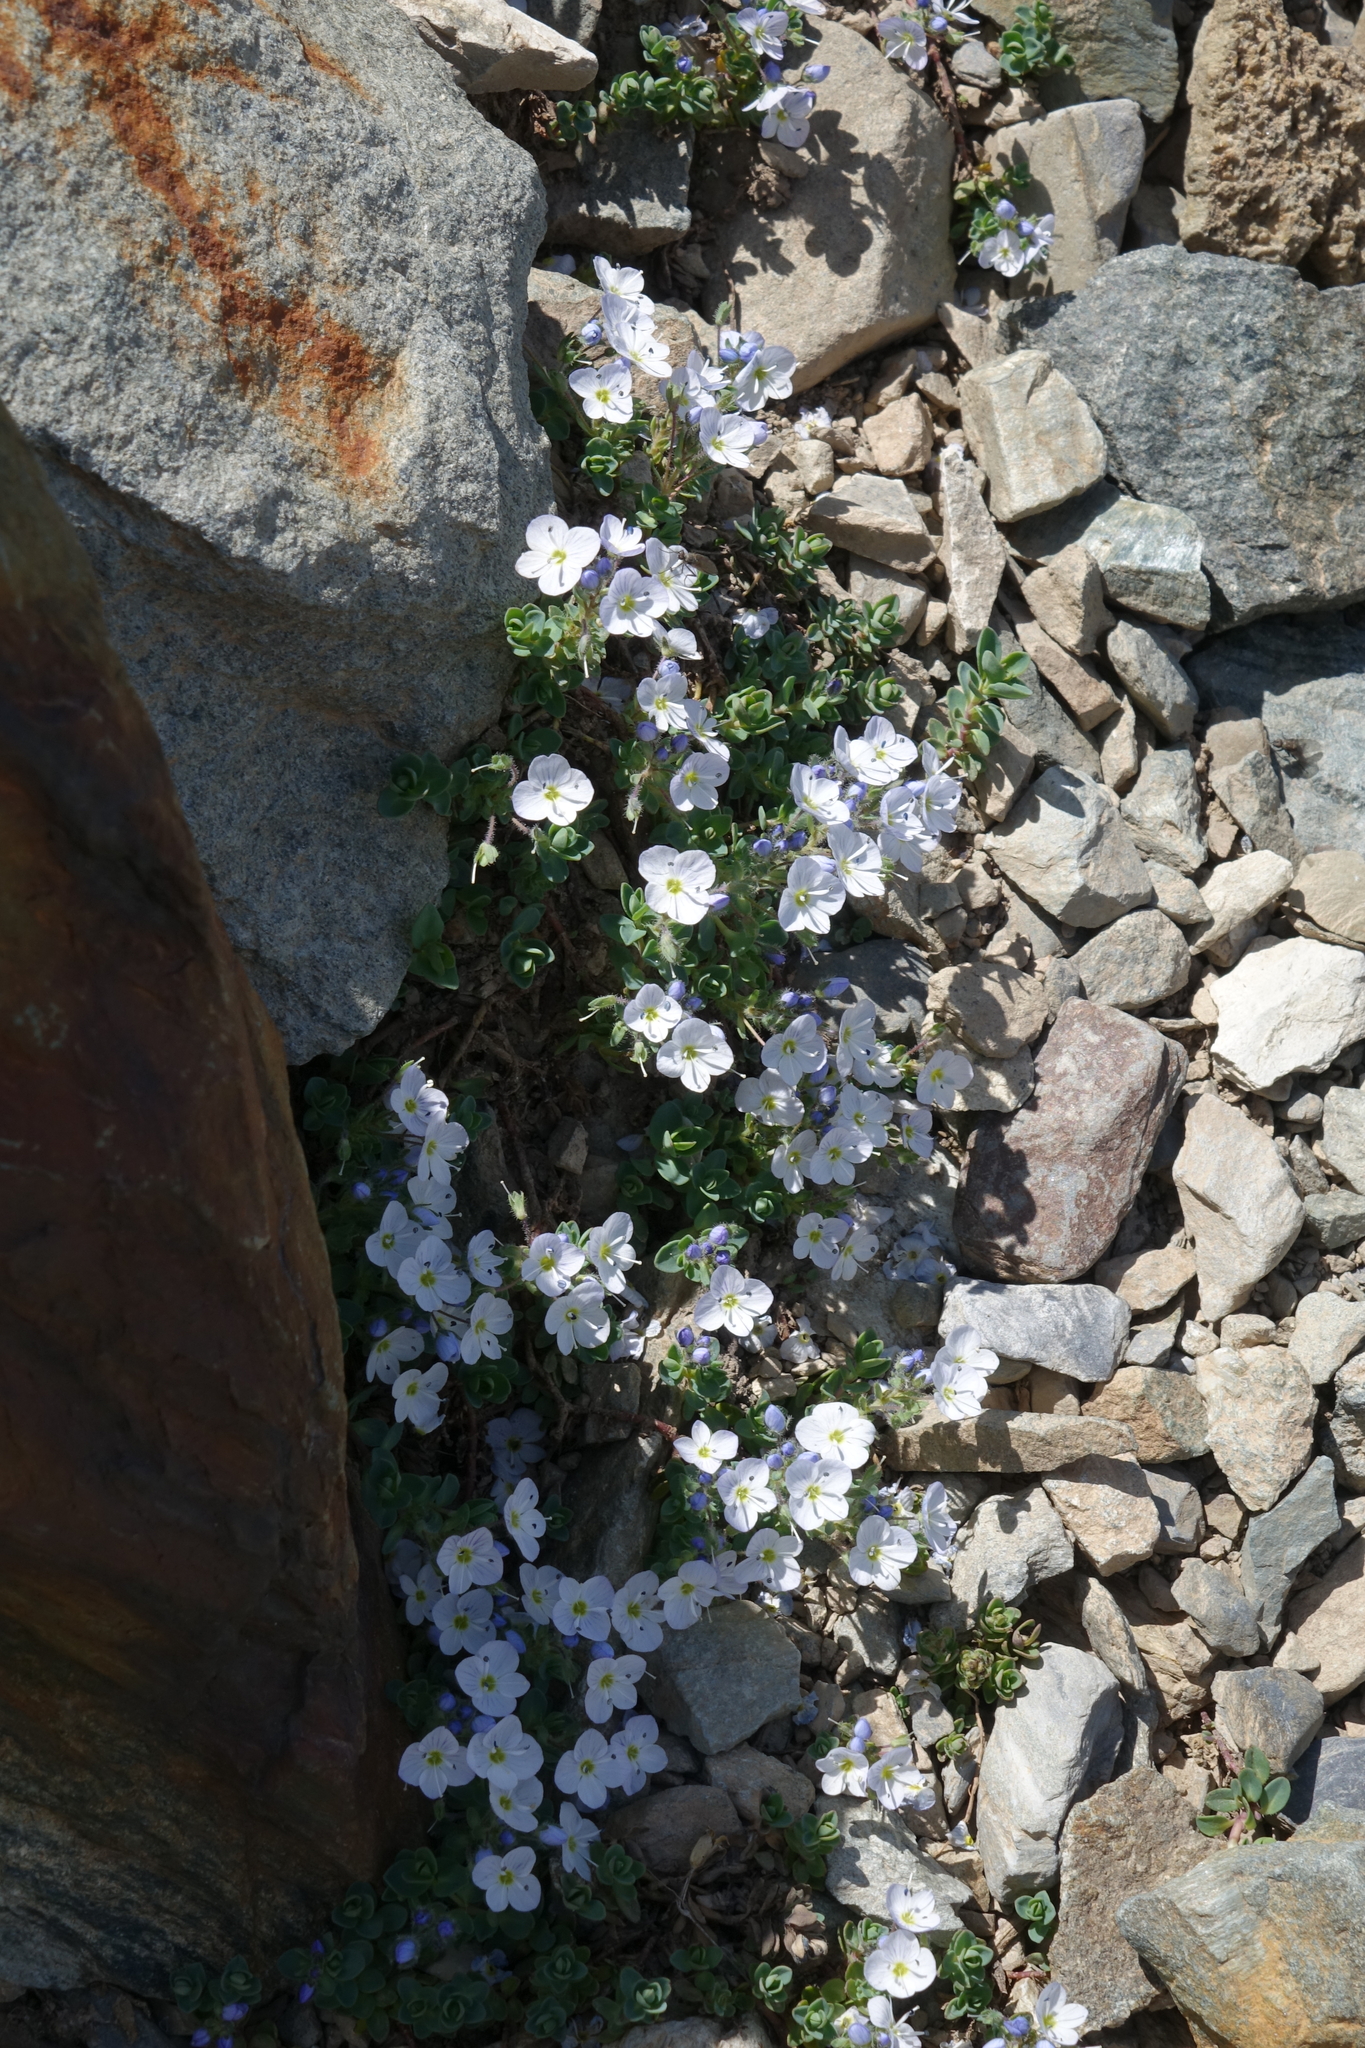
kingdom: Plantae
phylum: Tracheophyta
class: Magnoliopsida
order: Lamiales
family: Plantaginaceae
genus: Veronica
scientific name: Veronica telephiifolia
